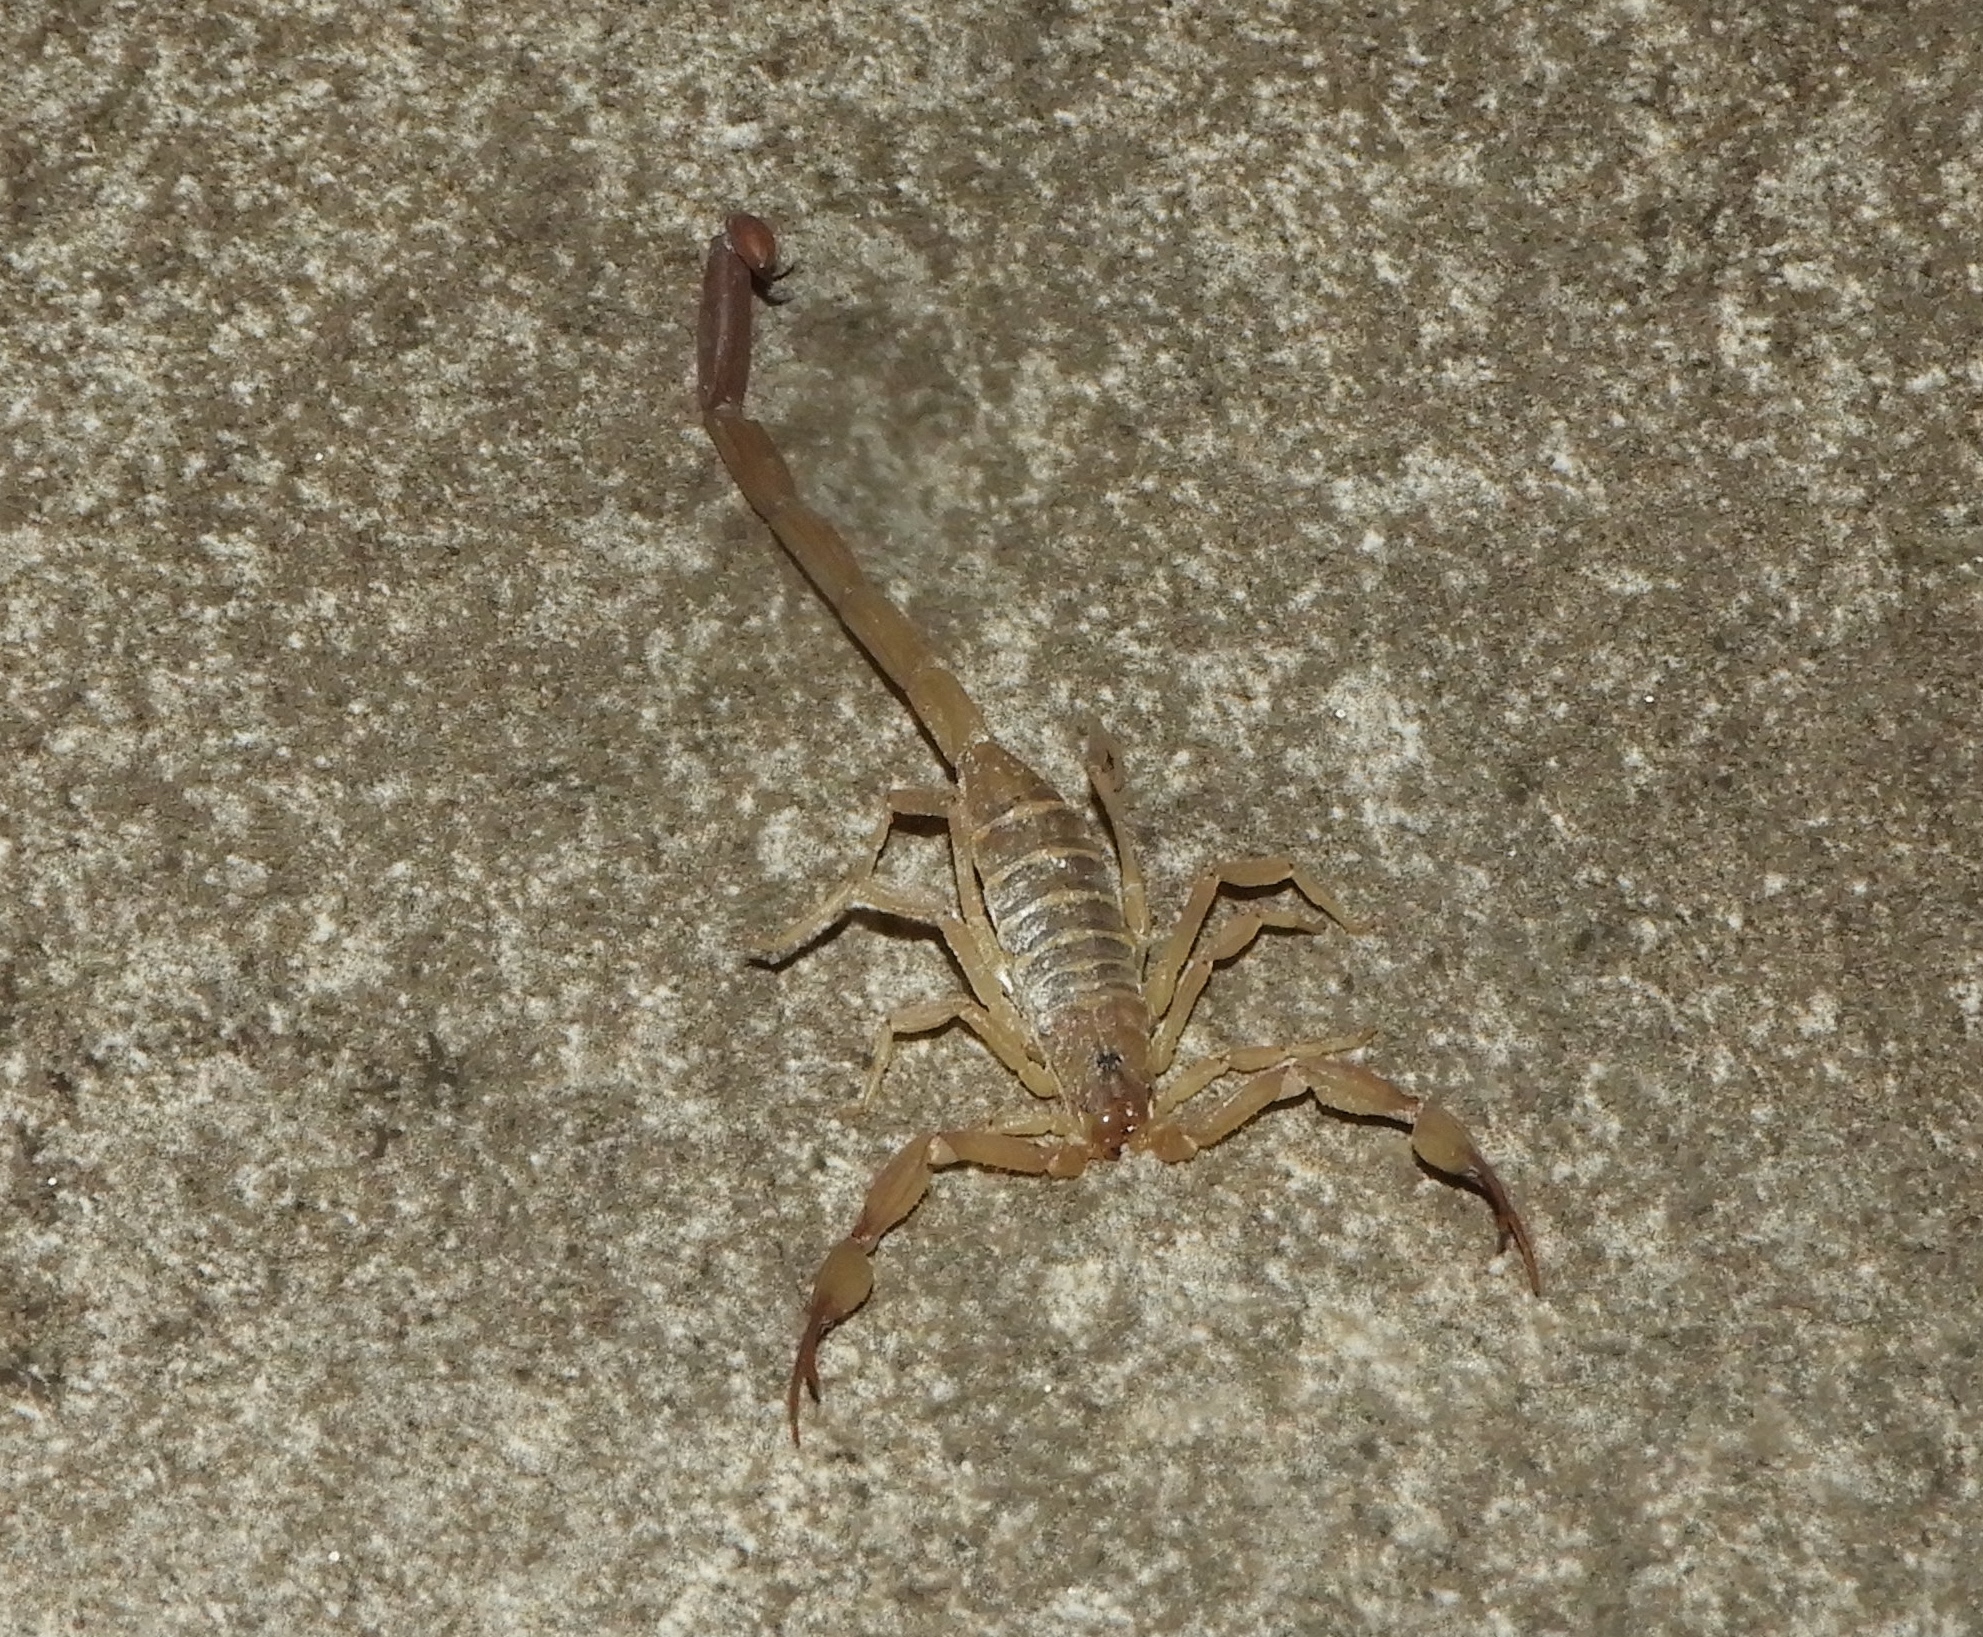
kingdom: Animalia
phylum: Arthropoda
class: Arachnida
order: Scorpiones
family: Buthidae
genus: Centruroides
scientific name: Centruroides pallidiceps
